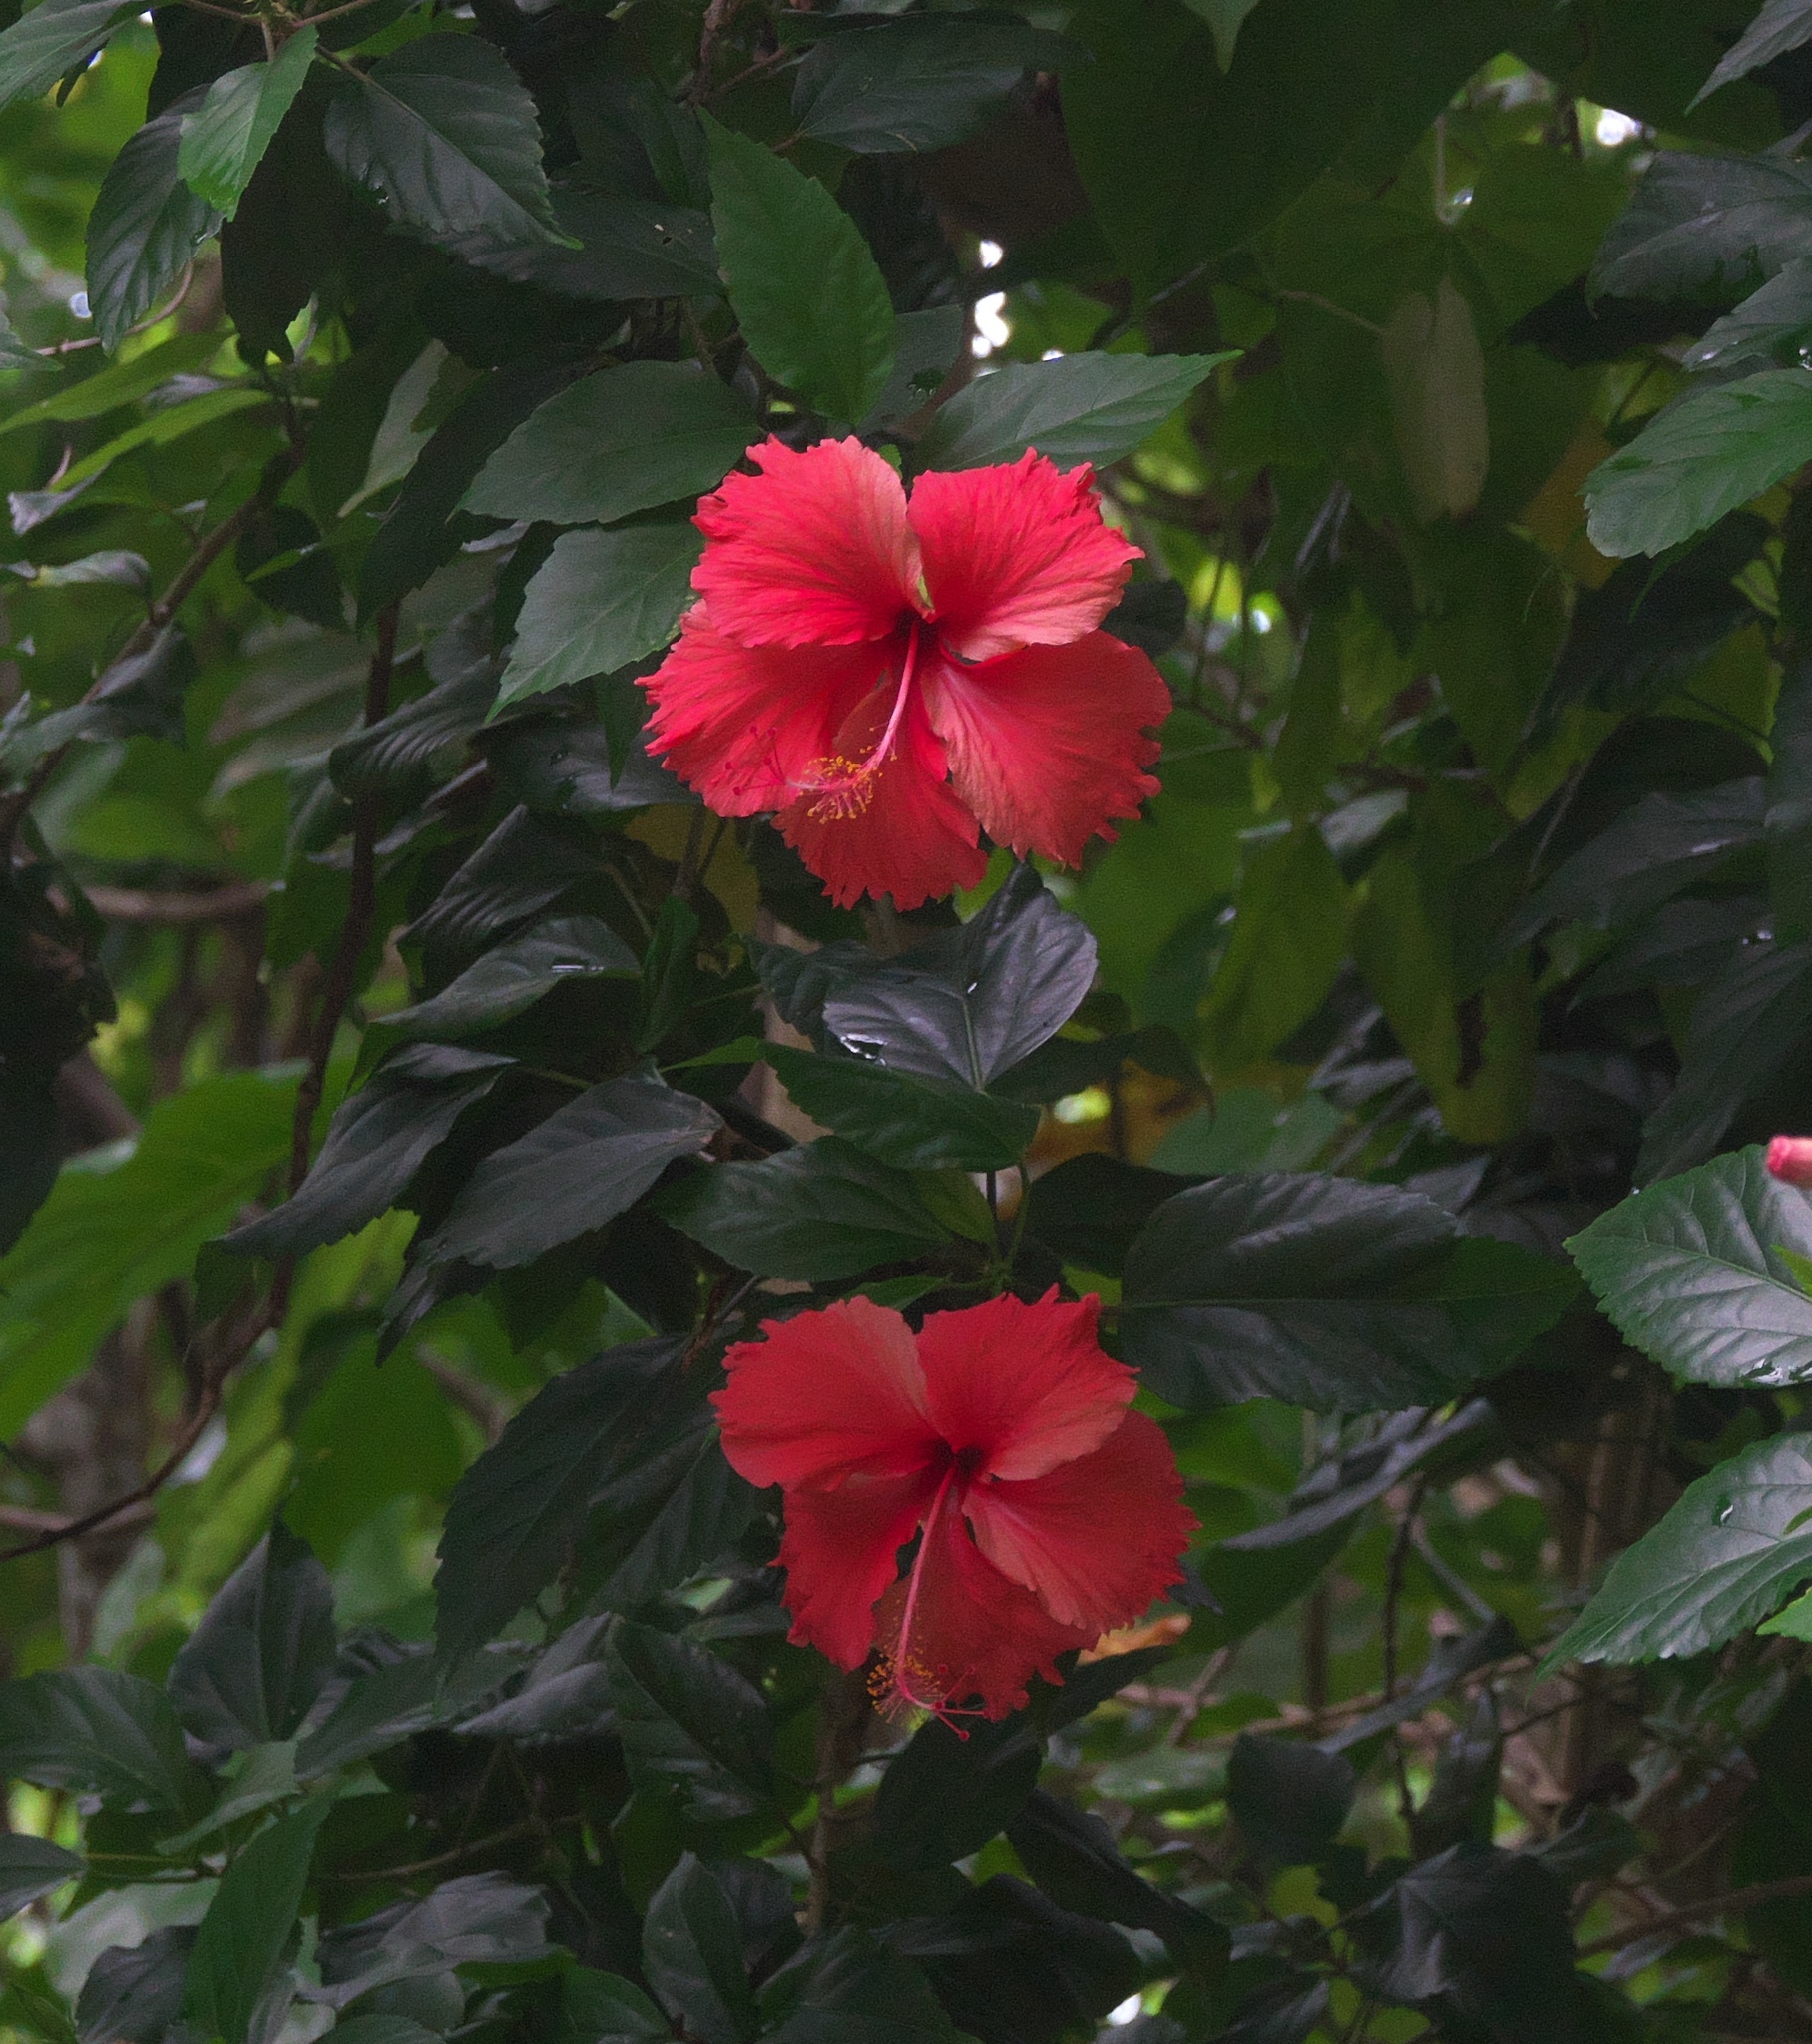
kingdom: Plantae
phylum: Tracheophyta
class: Magnoliopsida
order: Malvales
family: Malvaceae
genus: Hibiscus
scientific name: Hibiscus archeri
